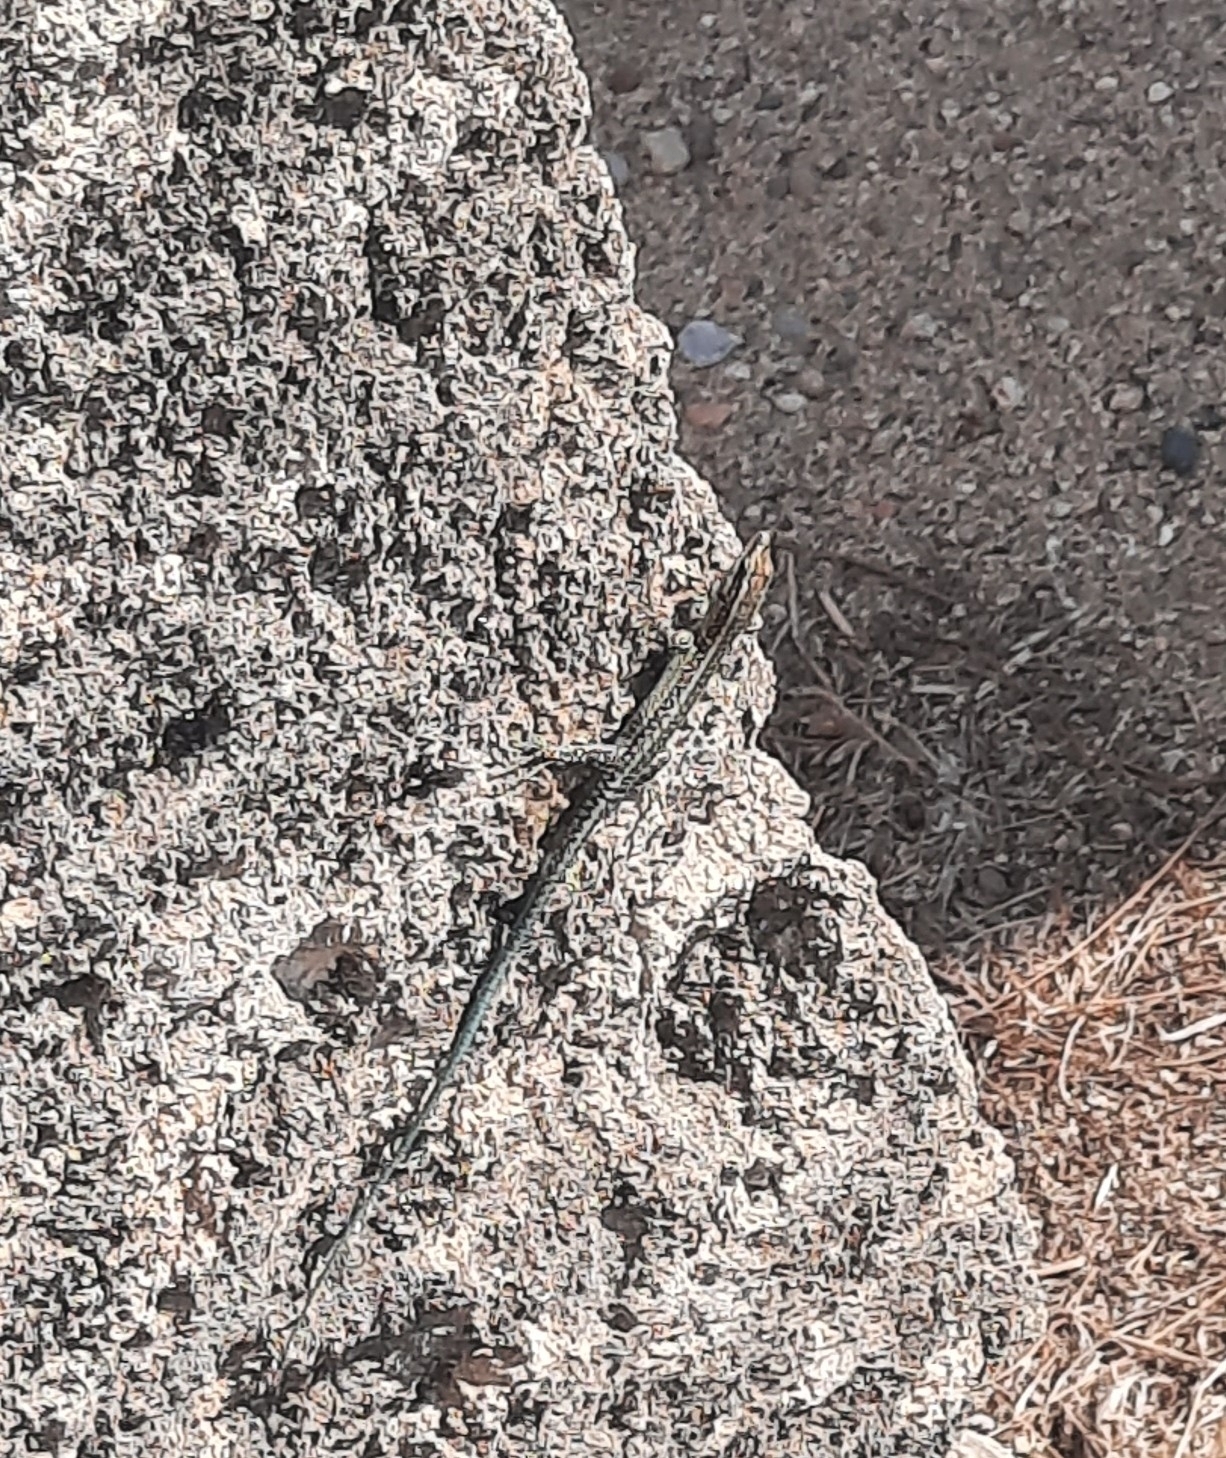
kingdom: Animalia
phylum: Chordata
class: Squamata
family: Lacertidae
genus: Anatololacerta
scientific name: Anatololacerta pelasgiana
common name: Pelasgian rock lizard
